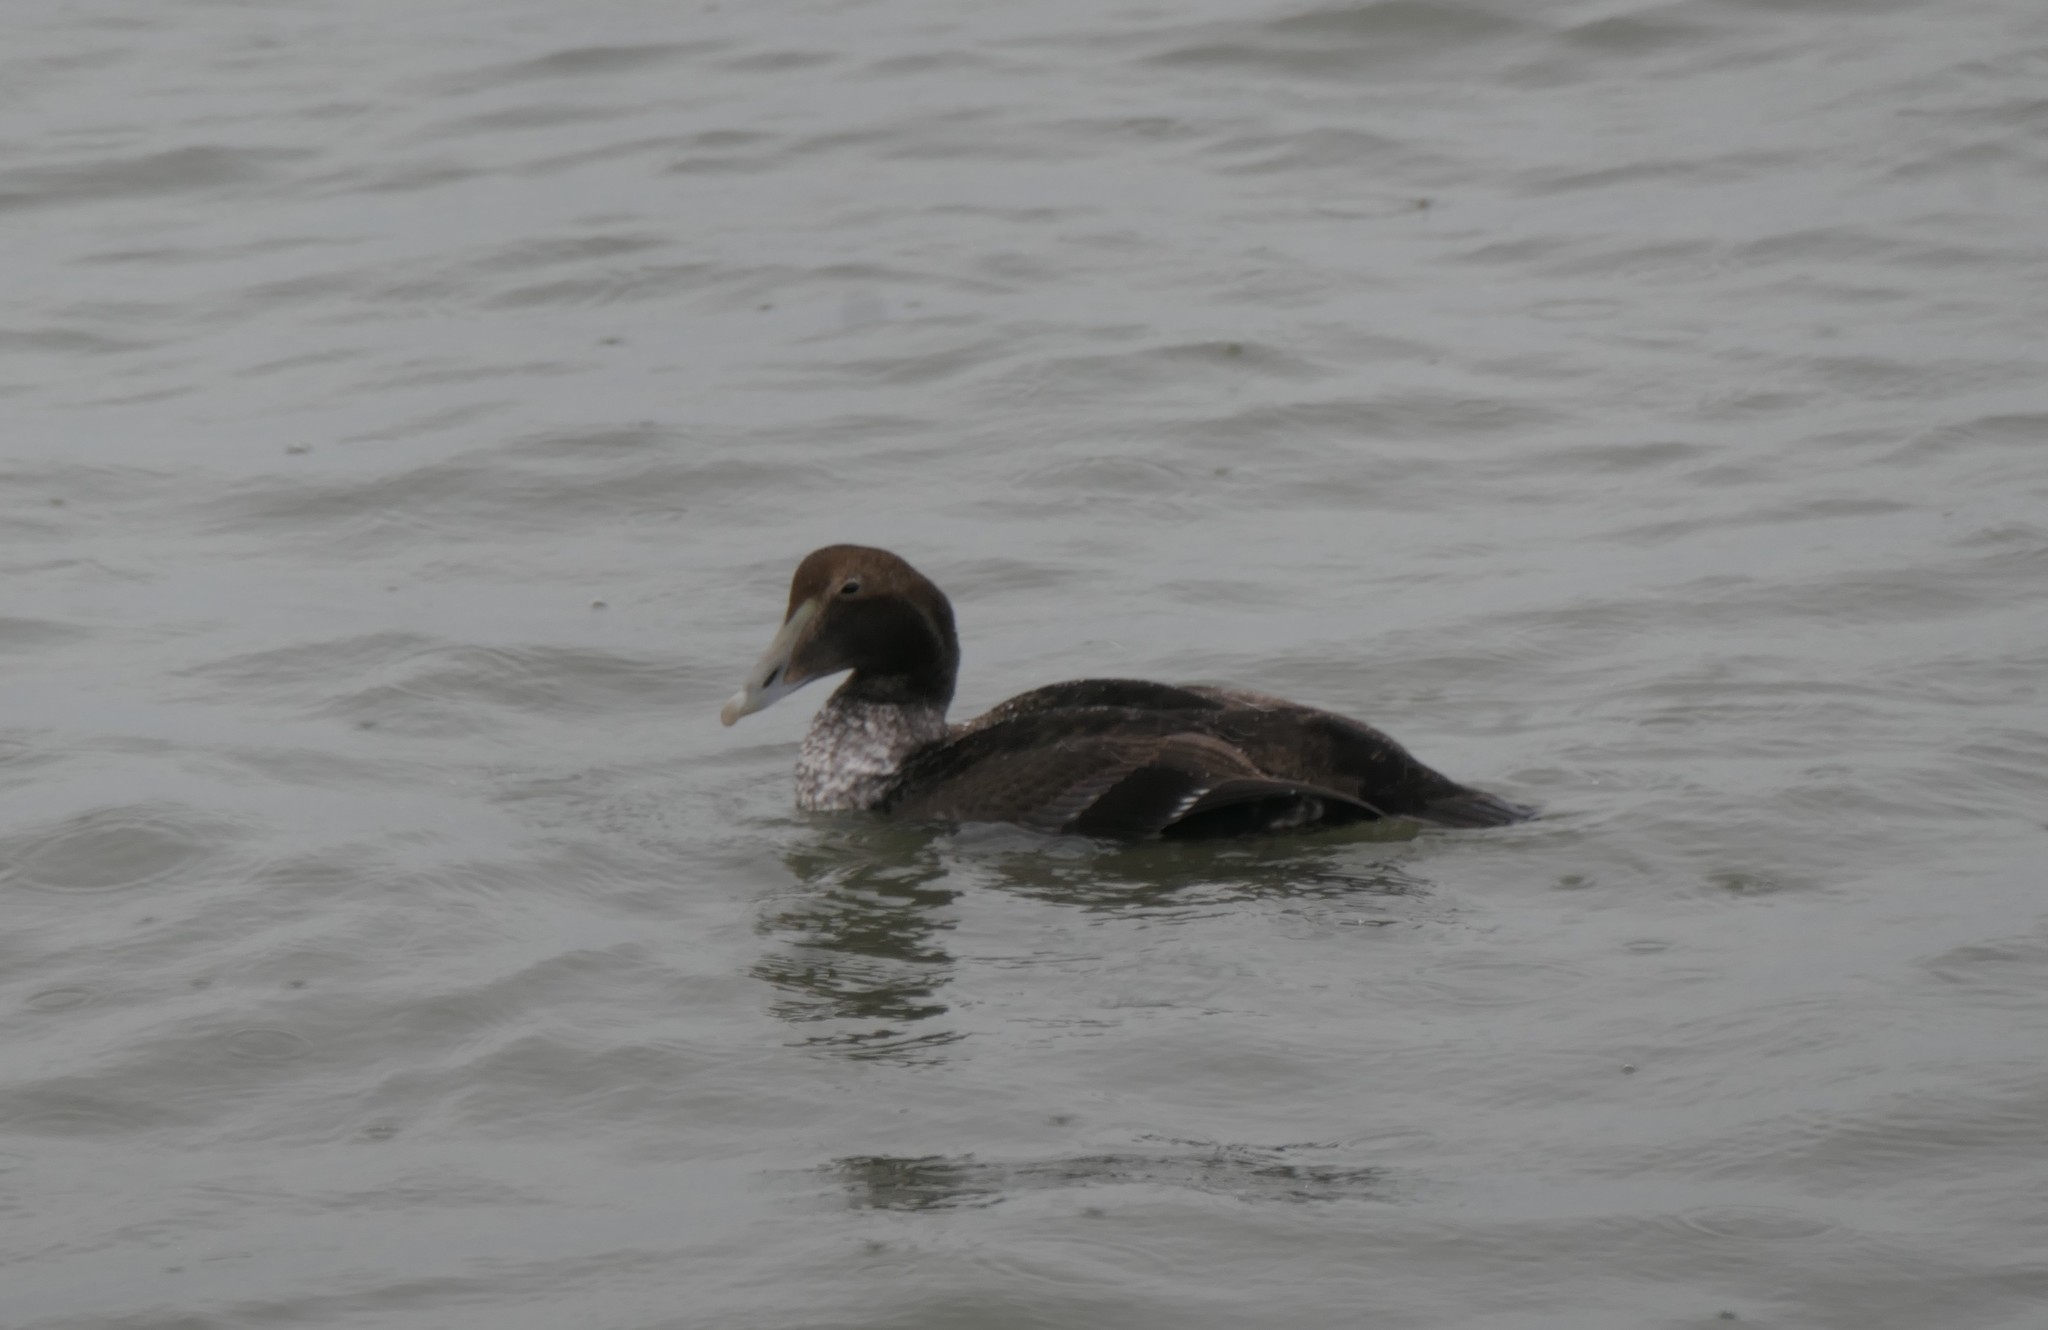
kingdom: Animalia
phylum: Chordata
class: Aves
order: Anseriformes
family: Anatidae
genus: Somateria
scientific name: Somateria mollissima
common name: Common eider
